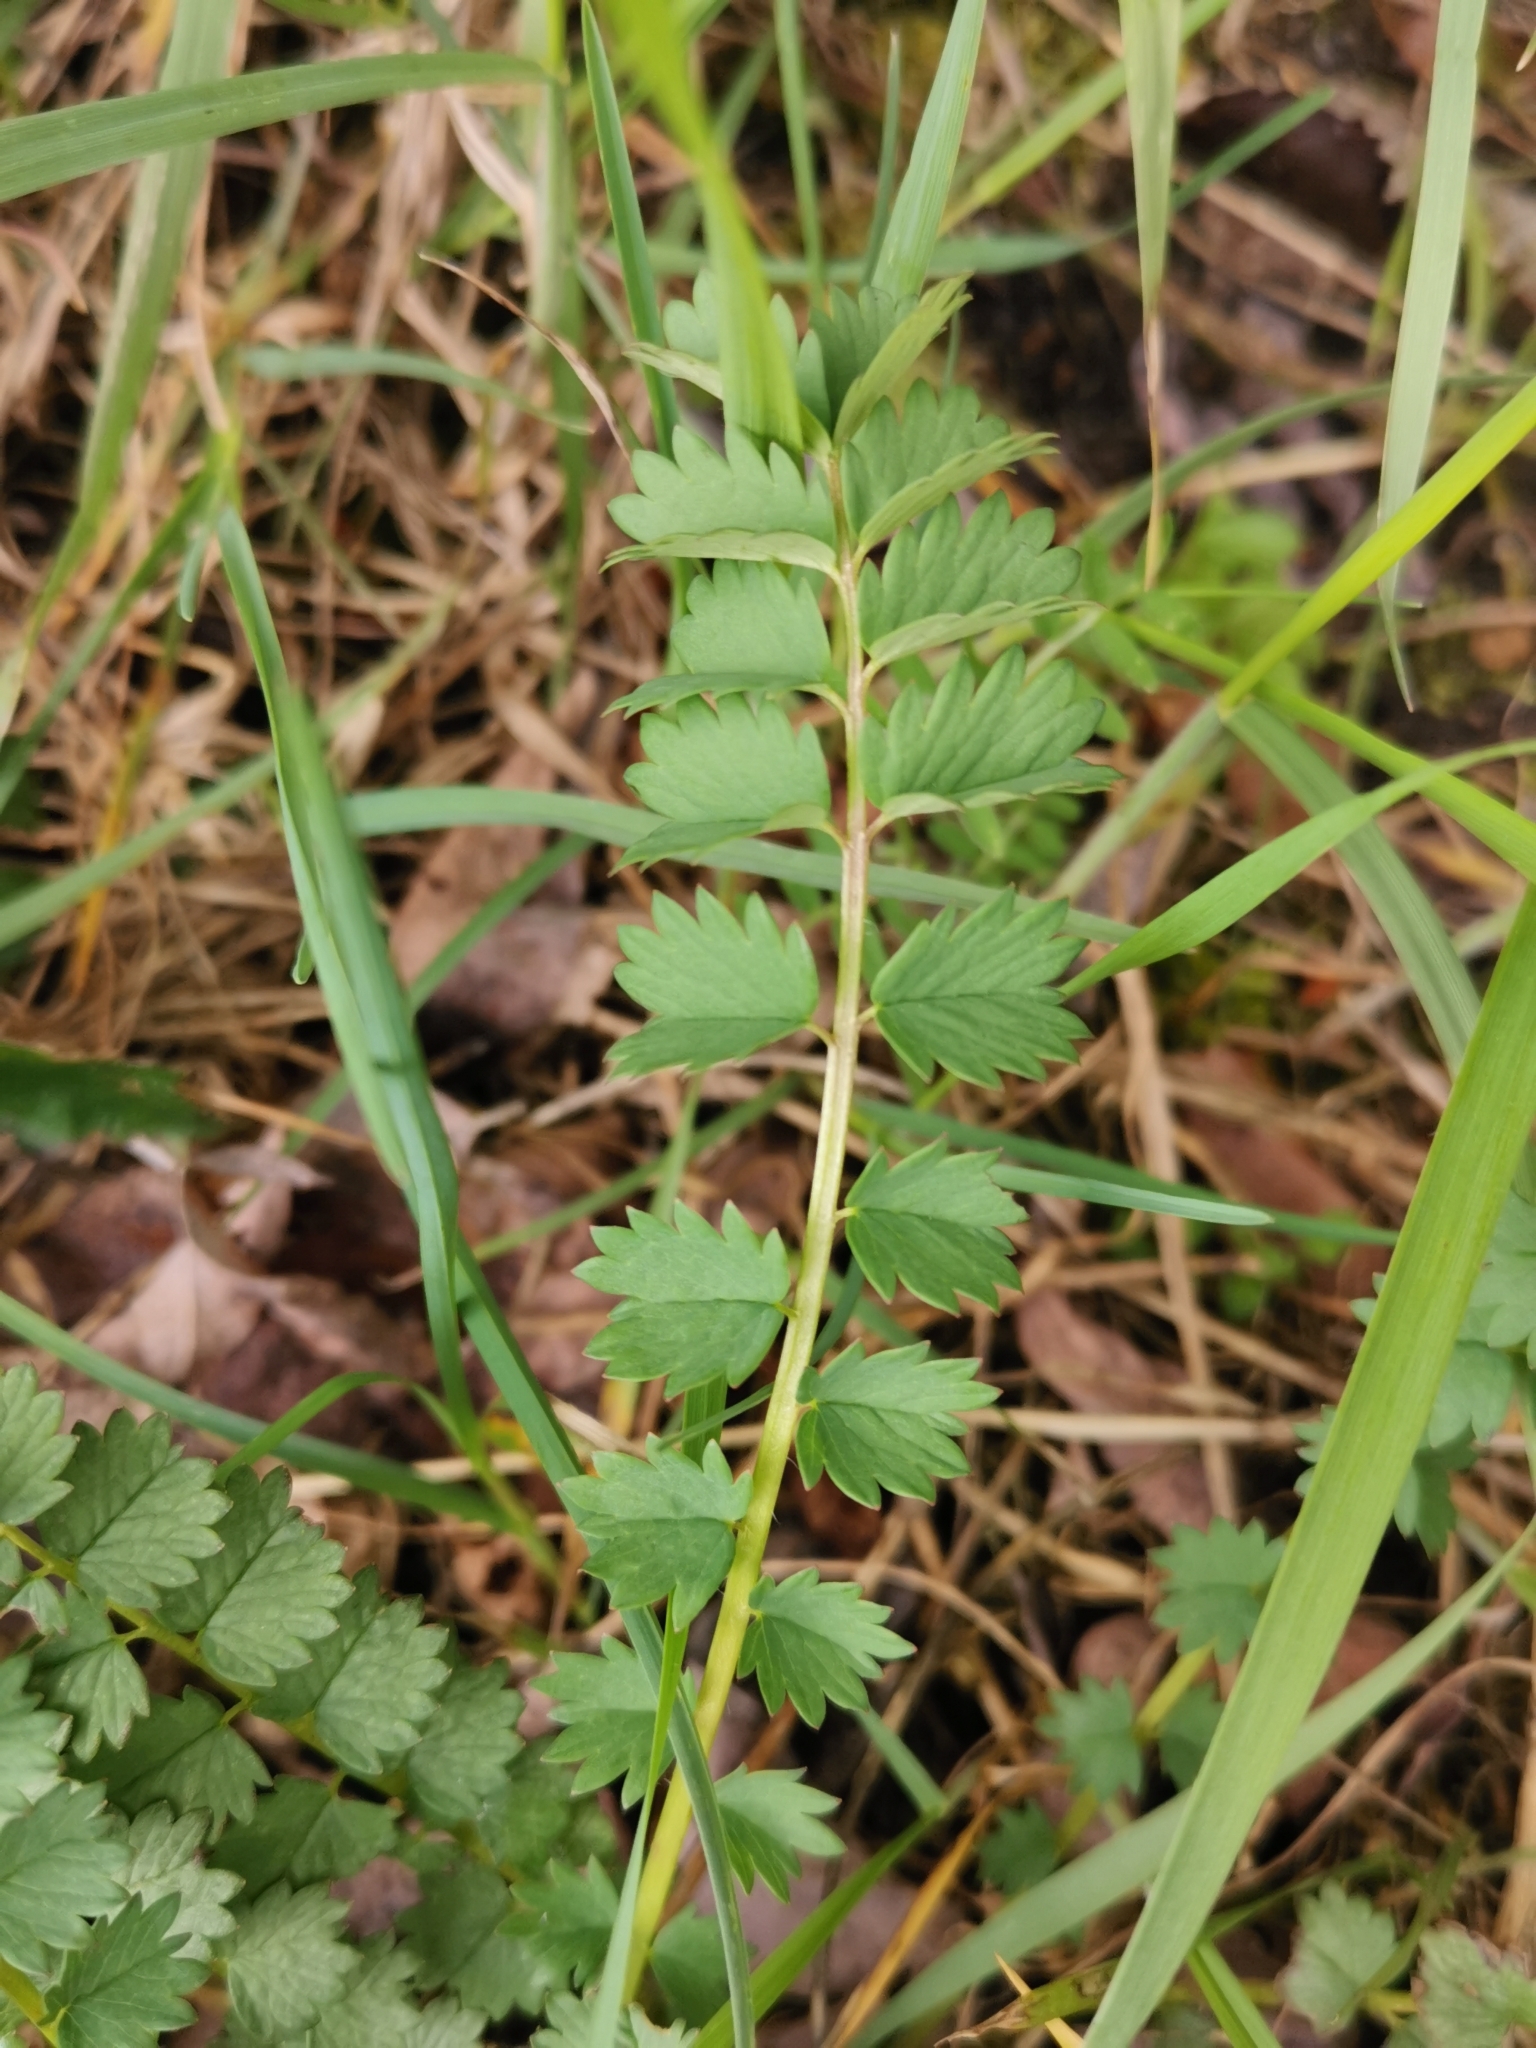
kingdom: Plantae
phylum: Tracheophyta
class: Magnoliopsida
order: Rosales
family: Rosaceae
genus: Poterium
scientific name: Poterium sanguisorba
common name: Salad burnet
